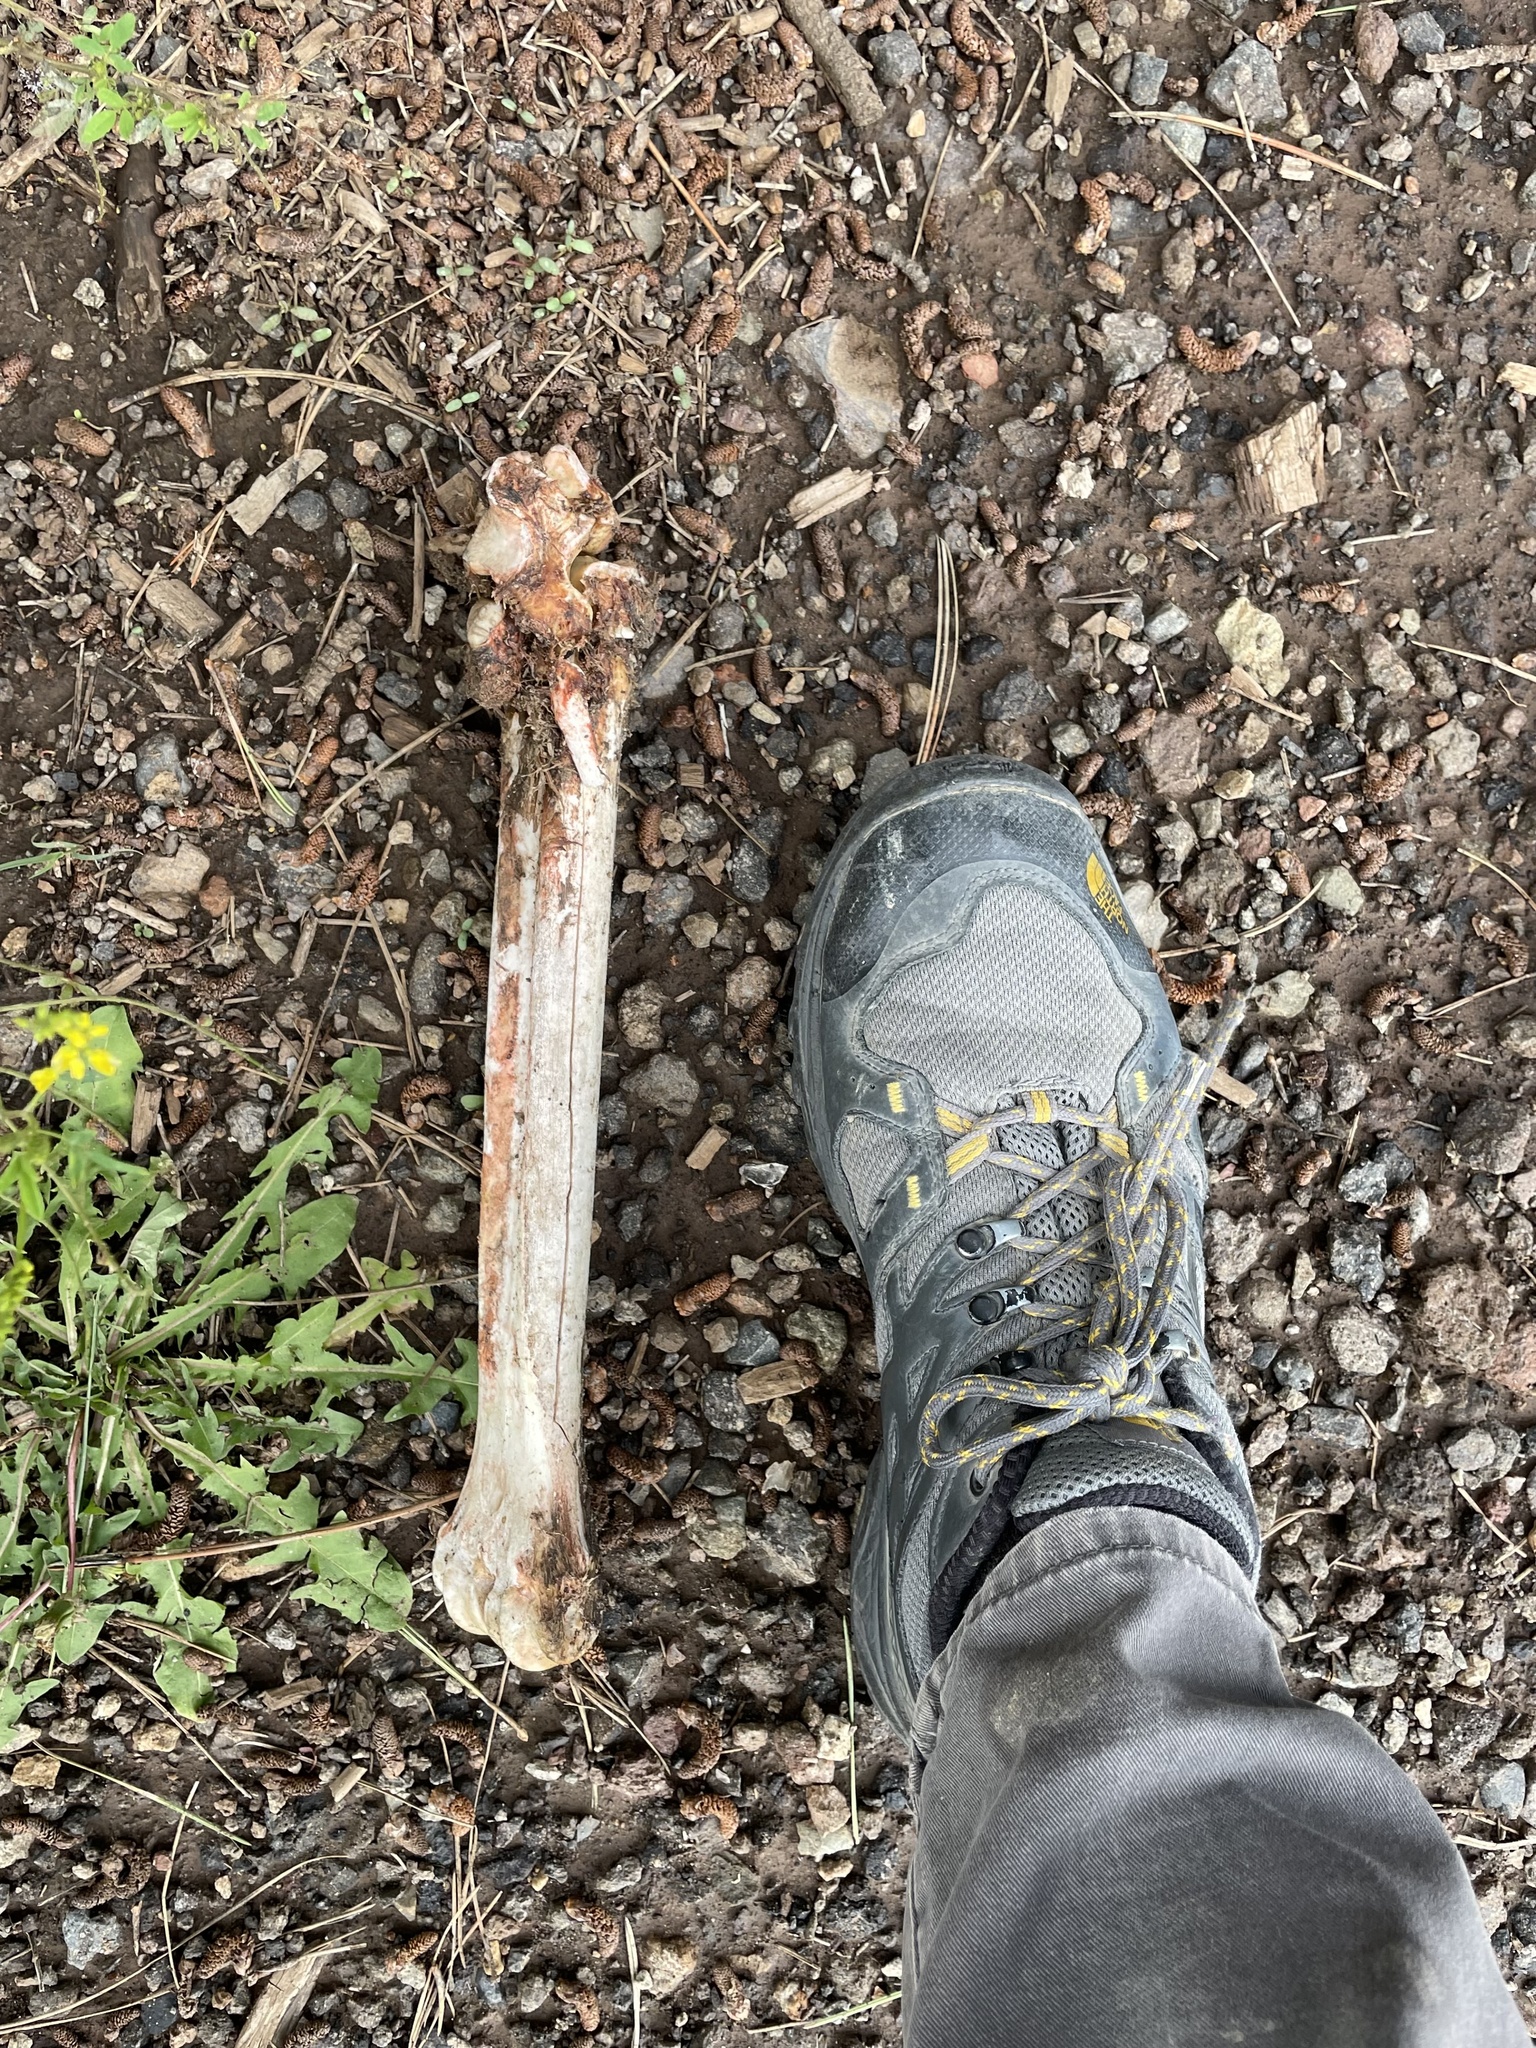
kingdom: Animalia
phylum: Chordata
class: Mammalia
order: Artiodactyla
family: Cervidae
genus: Cervus
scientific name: Cervus elaphus
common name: Red deer
